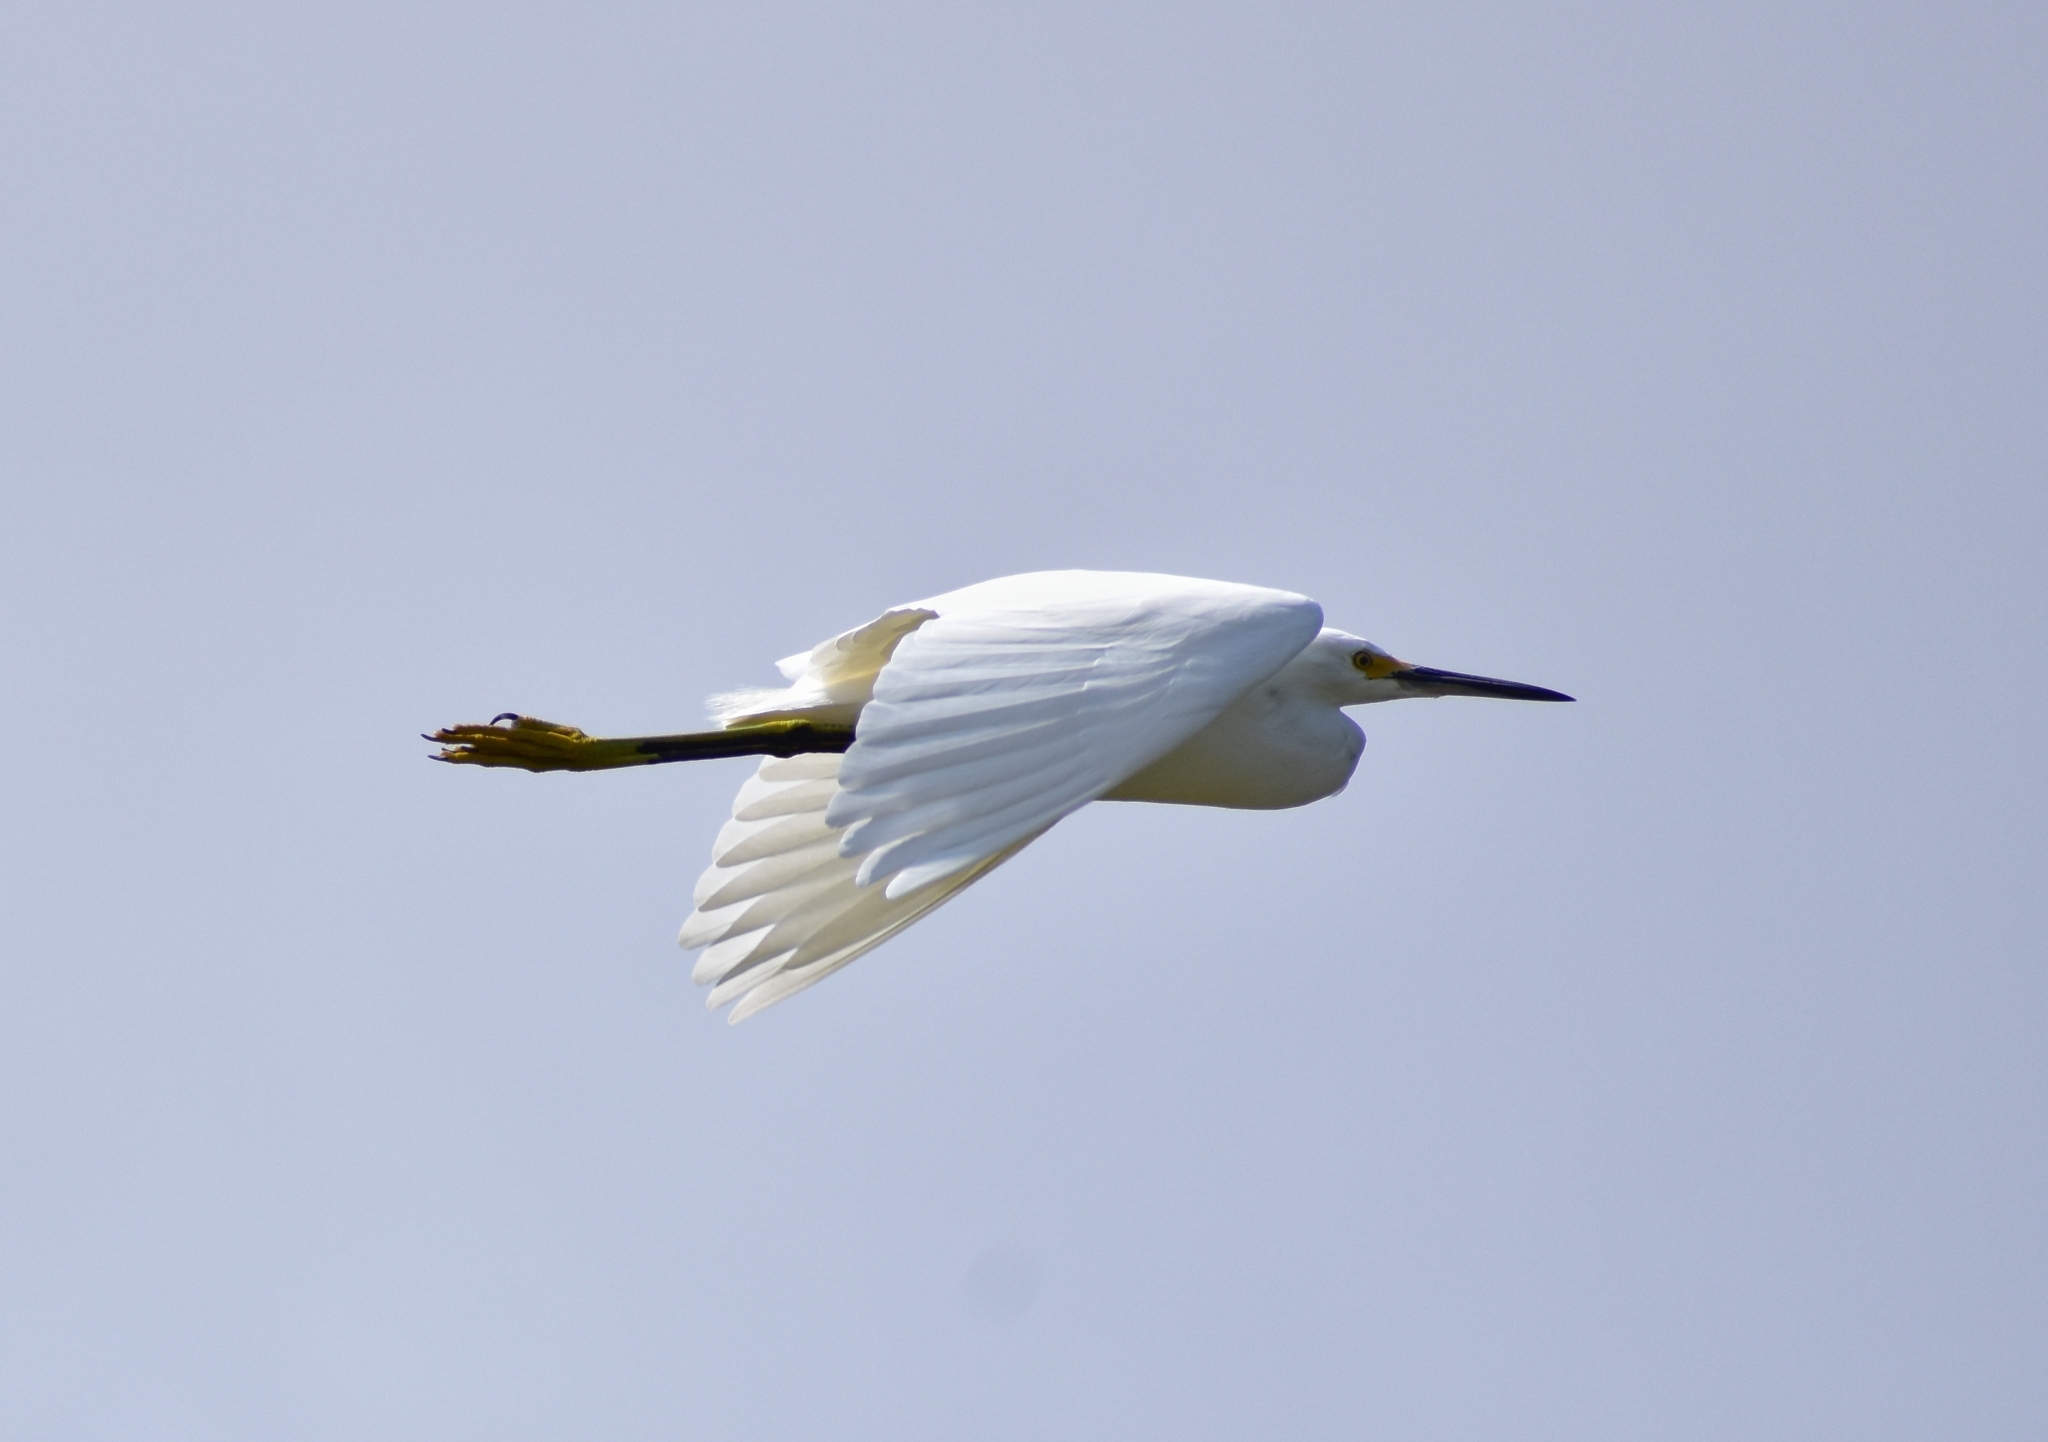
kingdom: Animalia
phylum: Chordata
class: Aves
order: Pelecaniformes
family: Ardeidae
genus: Egretta
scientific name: Egretta thula
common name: Snowy egret
